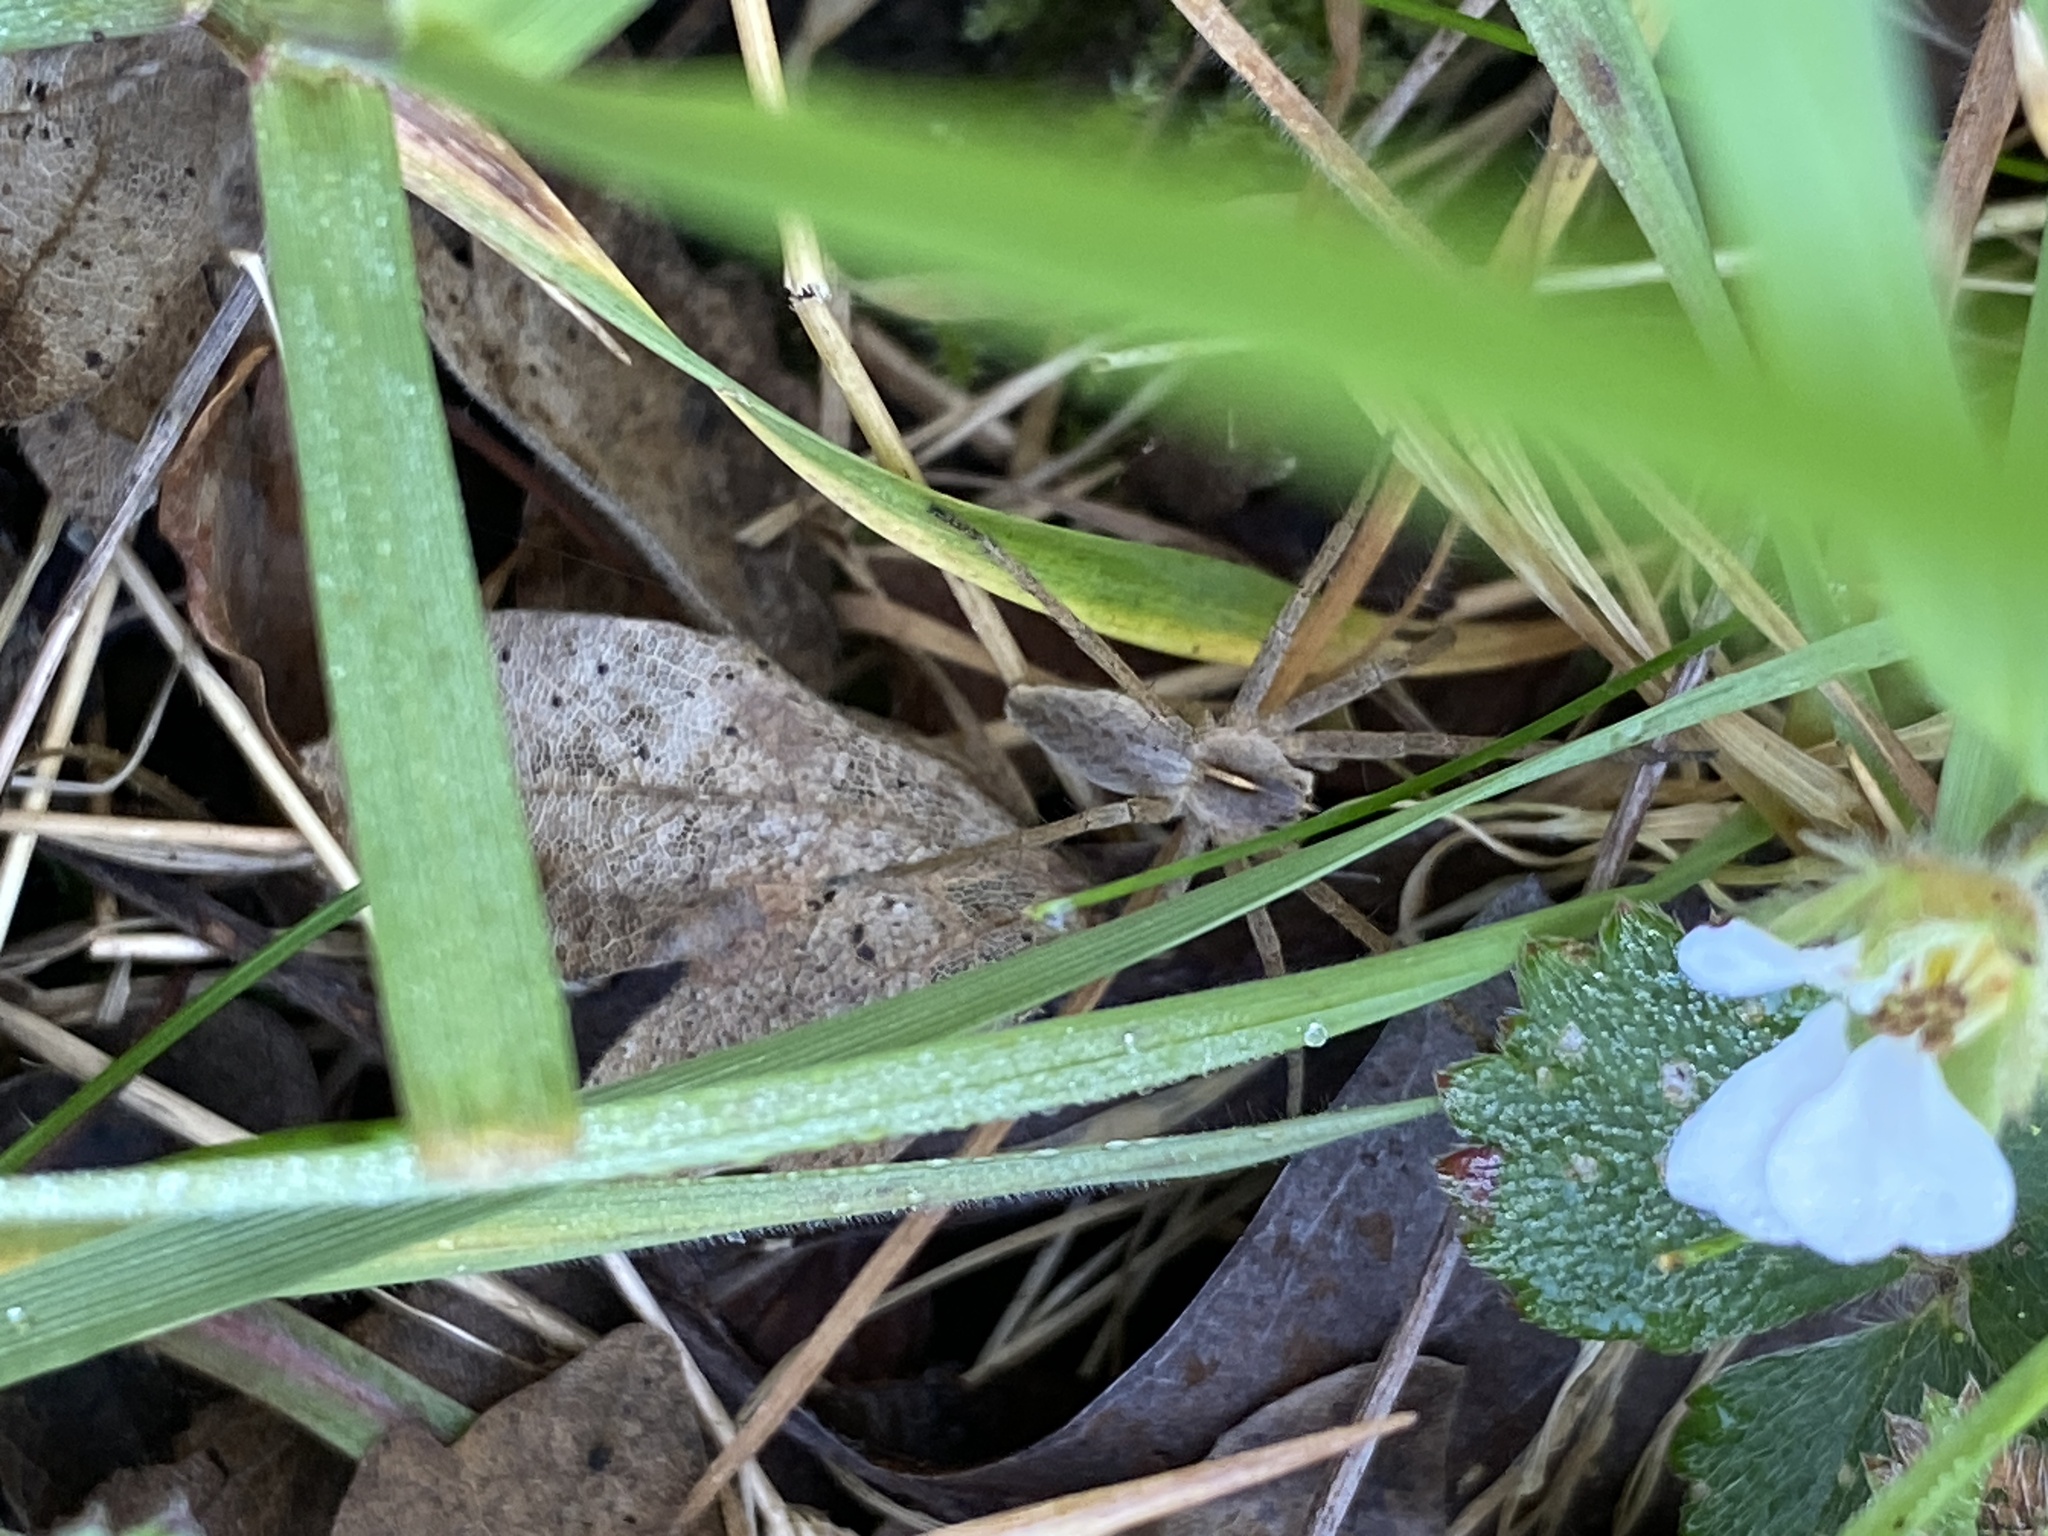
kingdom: Animalia
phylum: Arthropoda
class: Arachnida
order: Araneae
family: Pisauridae
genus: Pisaura
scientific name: Pisaura mirabilis
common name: Tent spider
